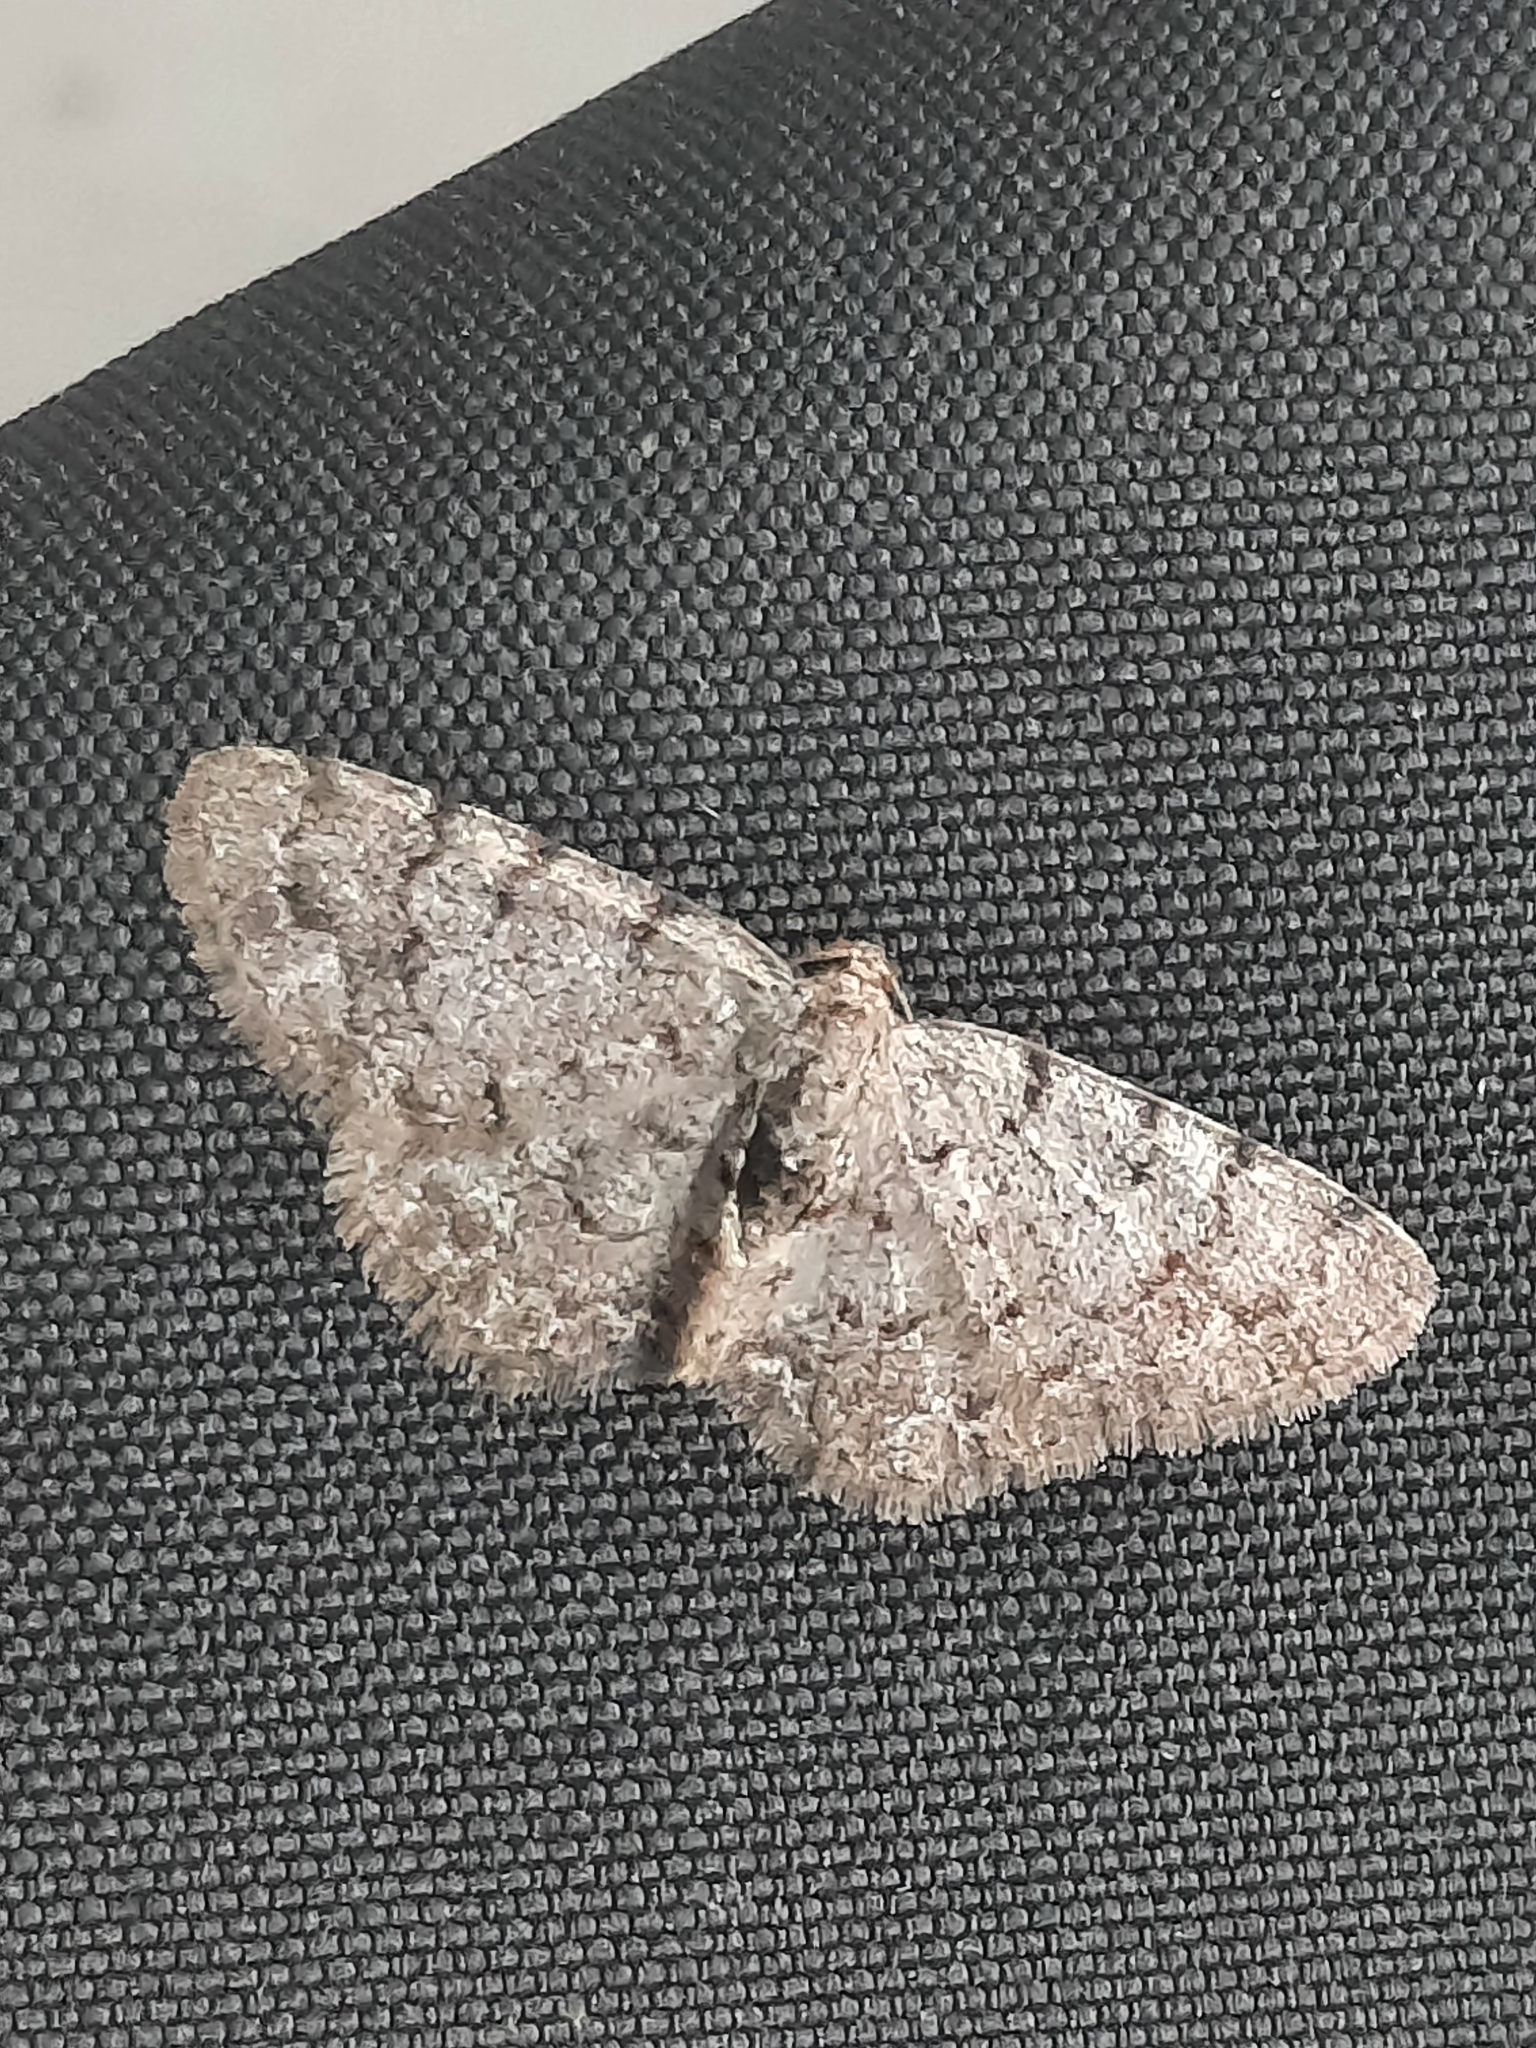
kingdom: Animalia
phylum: Arthropoda
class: Insecta
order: Lepidoptera
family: Geometridae
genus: Aethalura
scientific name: Aethalura intertexta
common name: Four-barred gray
